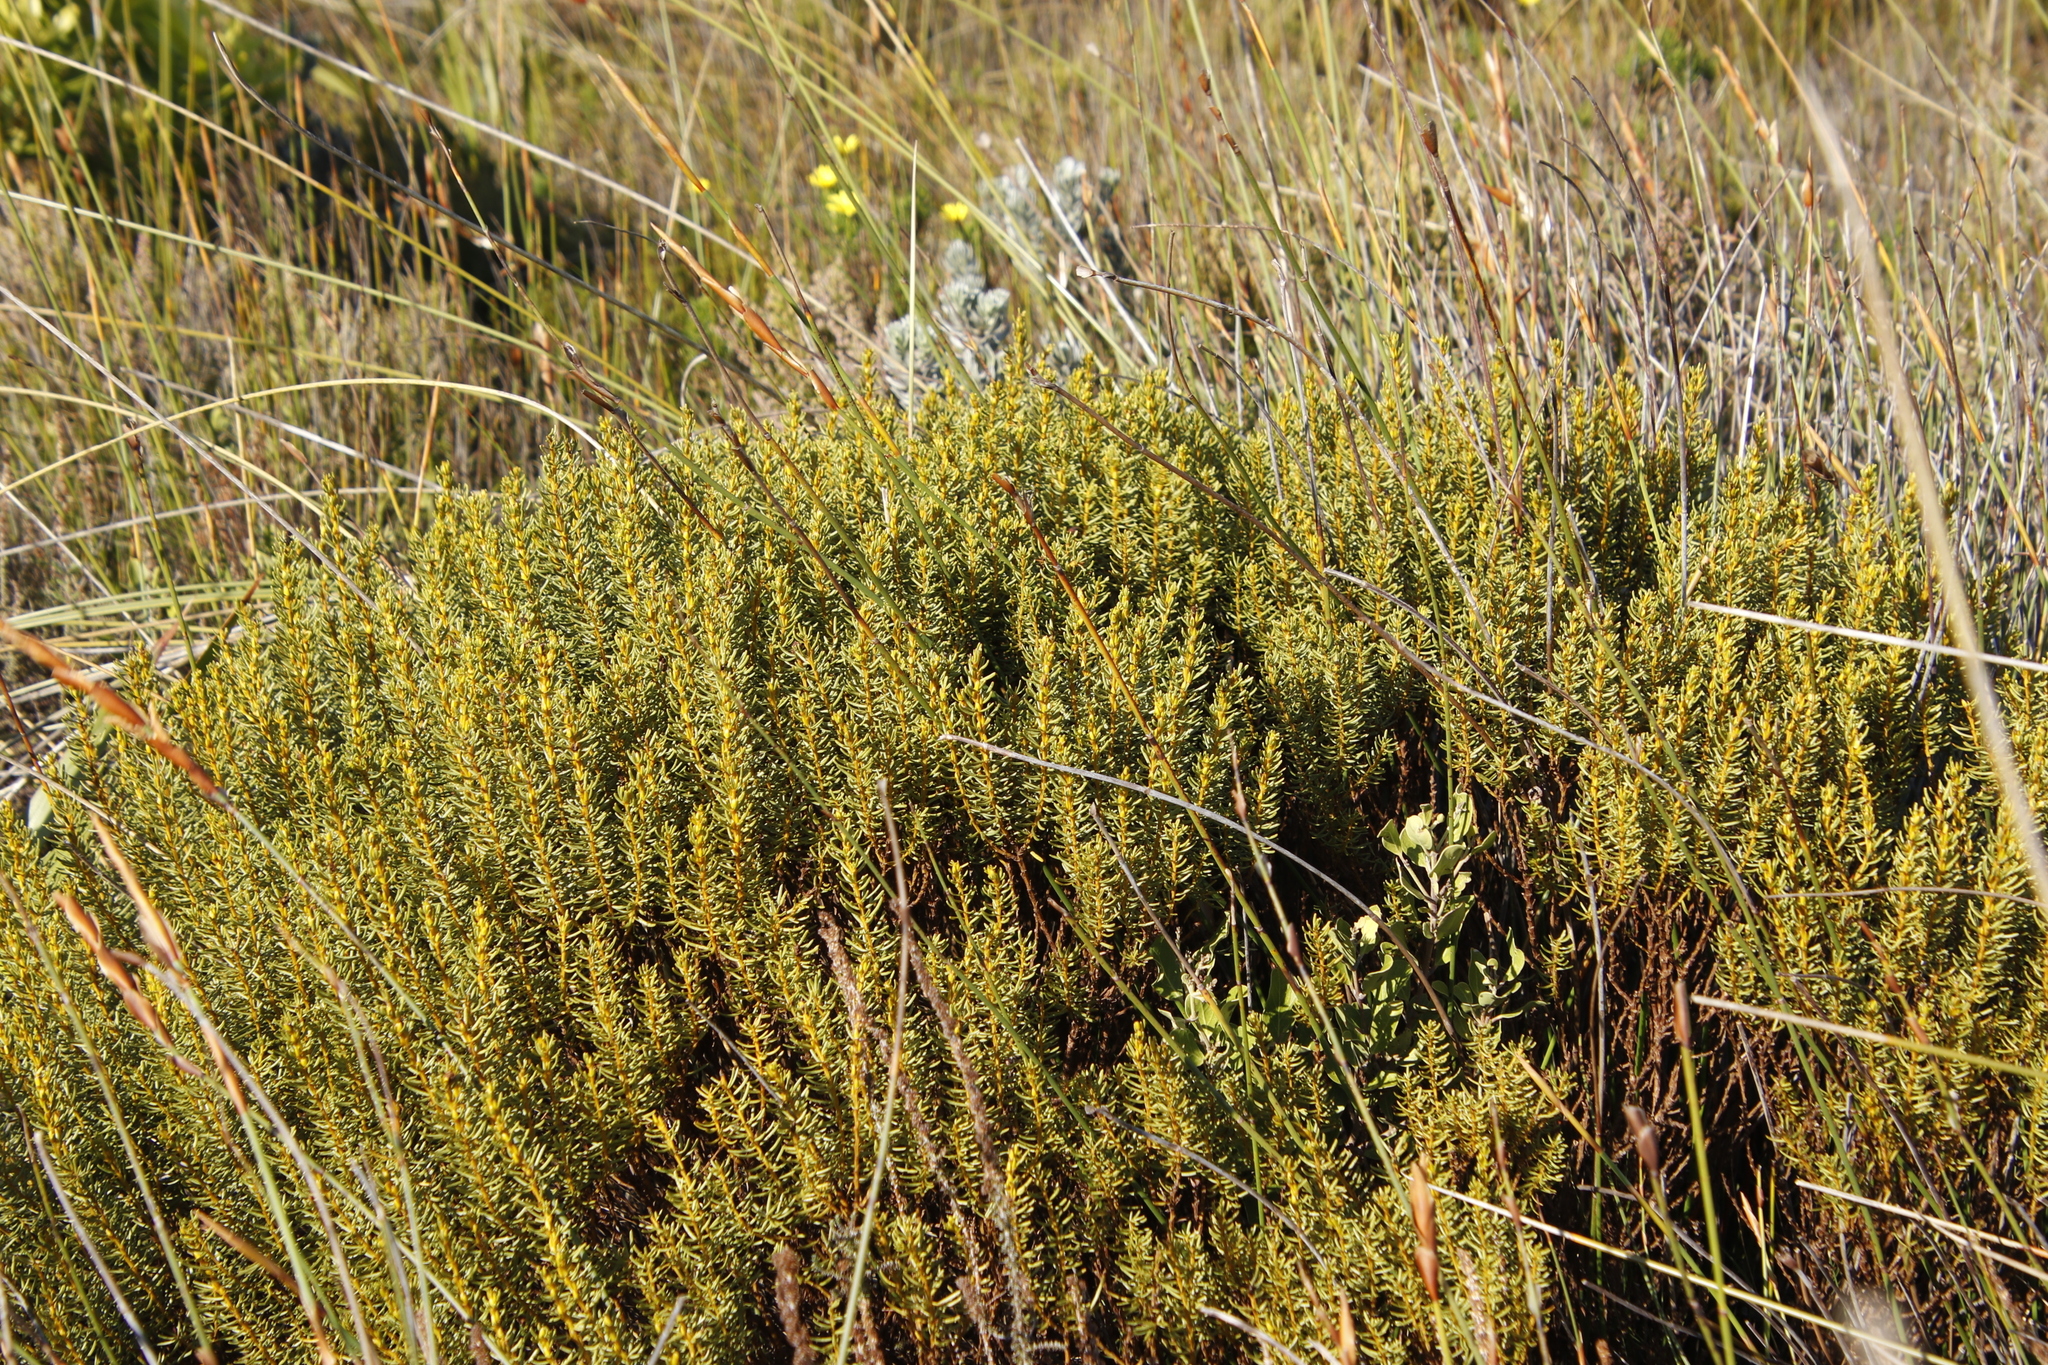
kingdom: Plantae
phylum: Tracheophyta
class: Magnoliopsida
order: Fabales
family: Fabaceae
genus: Cyclopia
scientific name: Cyclopia genistoides
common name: Honeybush tea
